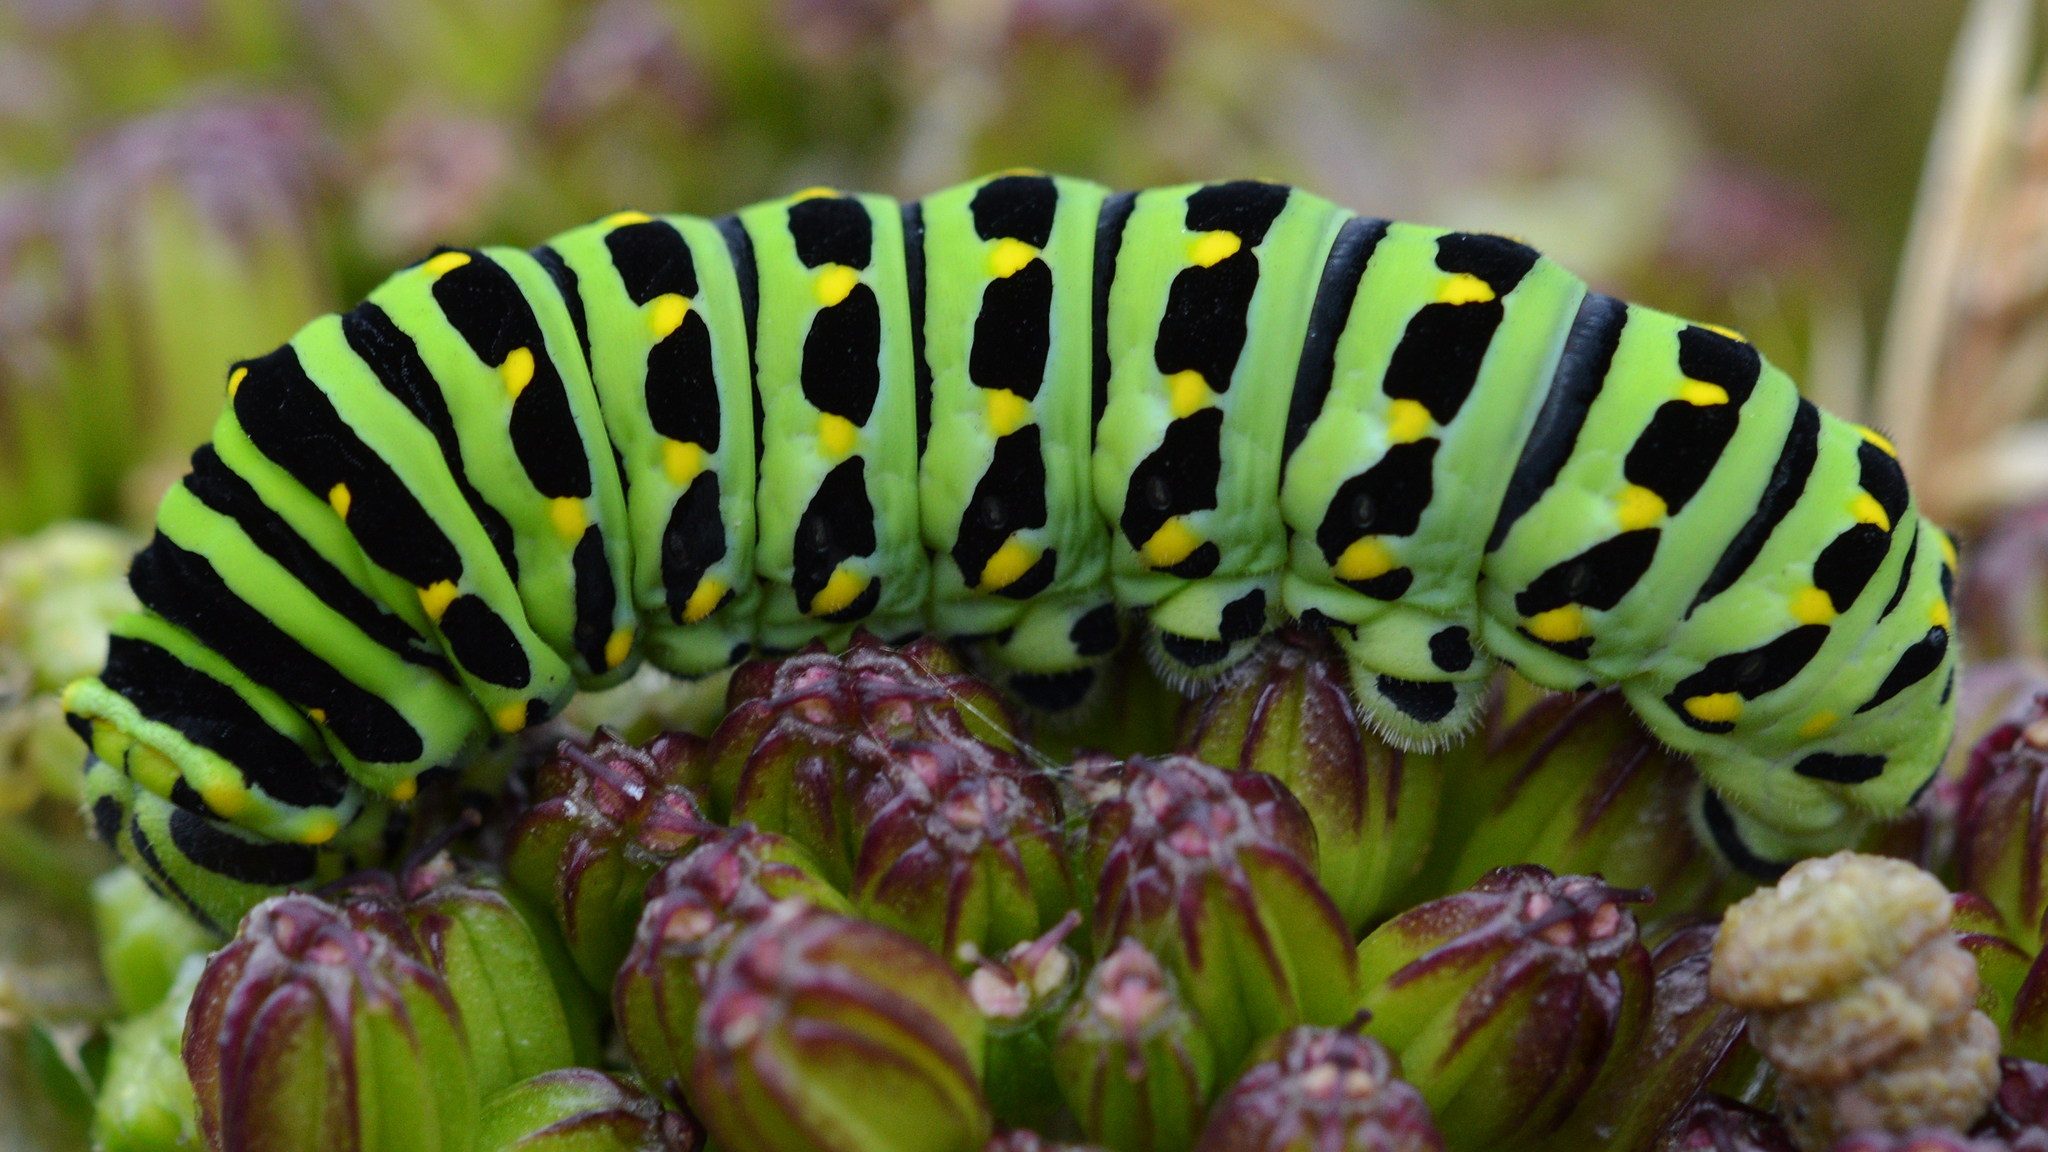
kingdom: Animalia
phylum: Arthropoda
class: Insecta
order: Lepidoptera
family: Papilionidae
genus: Papilio
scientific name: Papilio brevicauda
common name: Short tailed swallowtail
